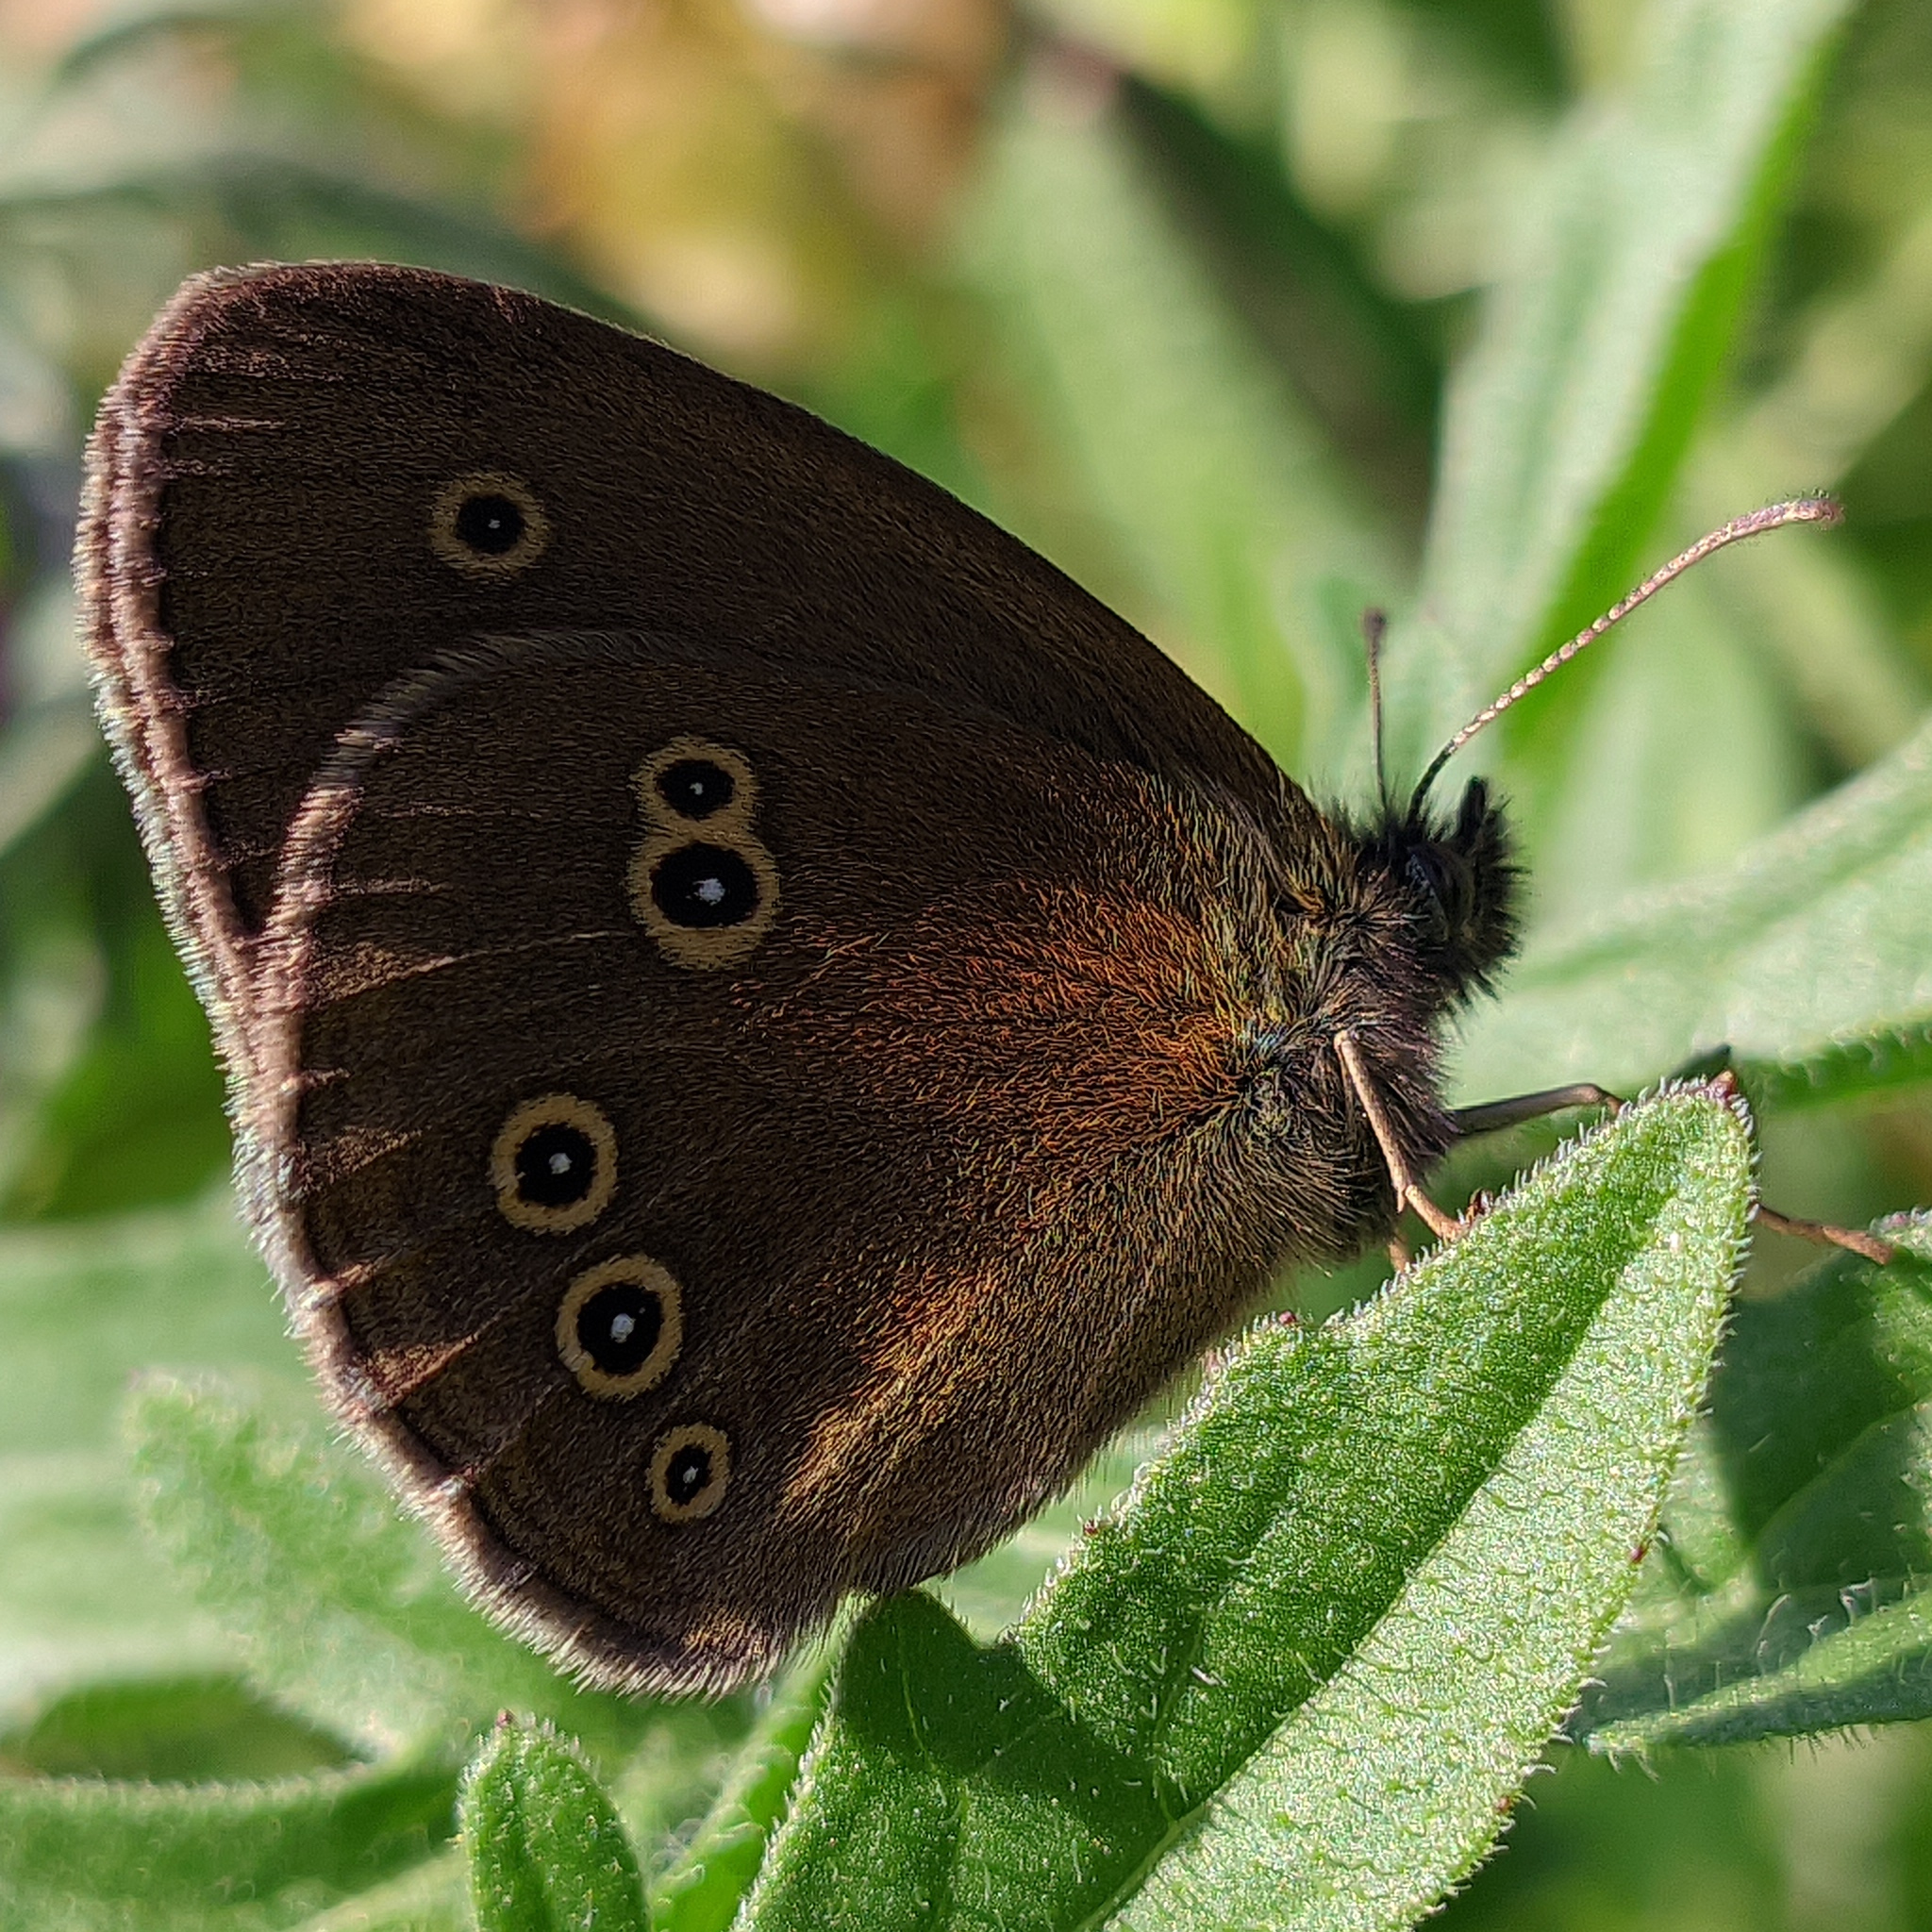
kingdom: Animalia
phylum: Arthropoda
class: Insecta
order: Lepidoptera
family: Nymphalidae
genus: Aphantopus
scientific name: Aphantopus hyperantus
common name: Ringlet
